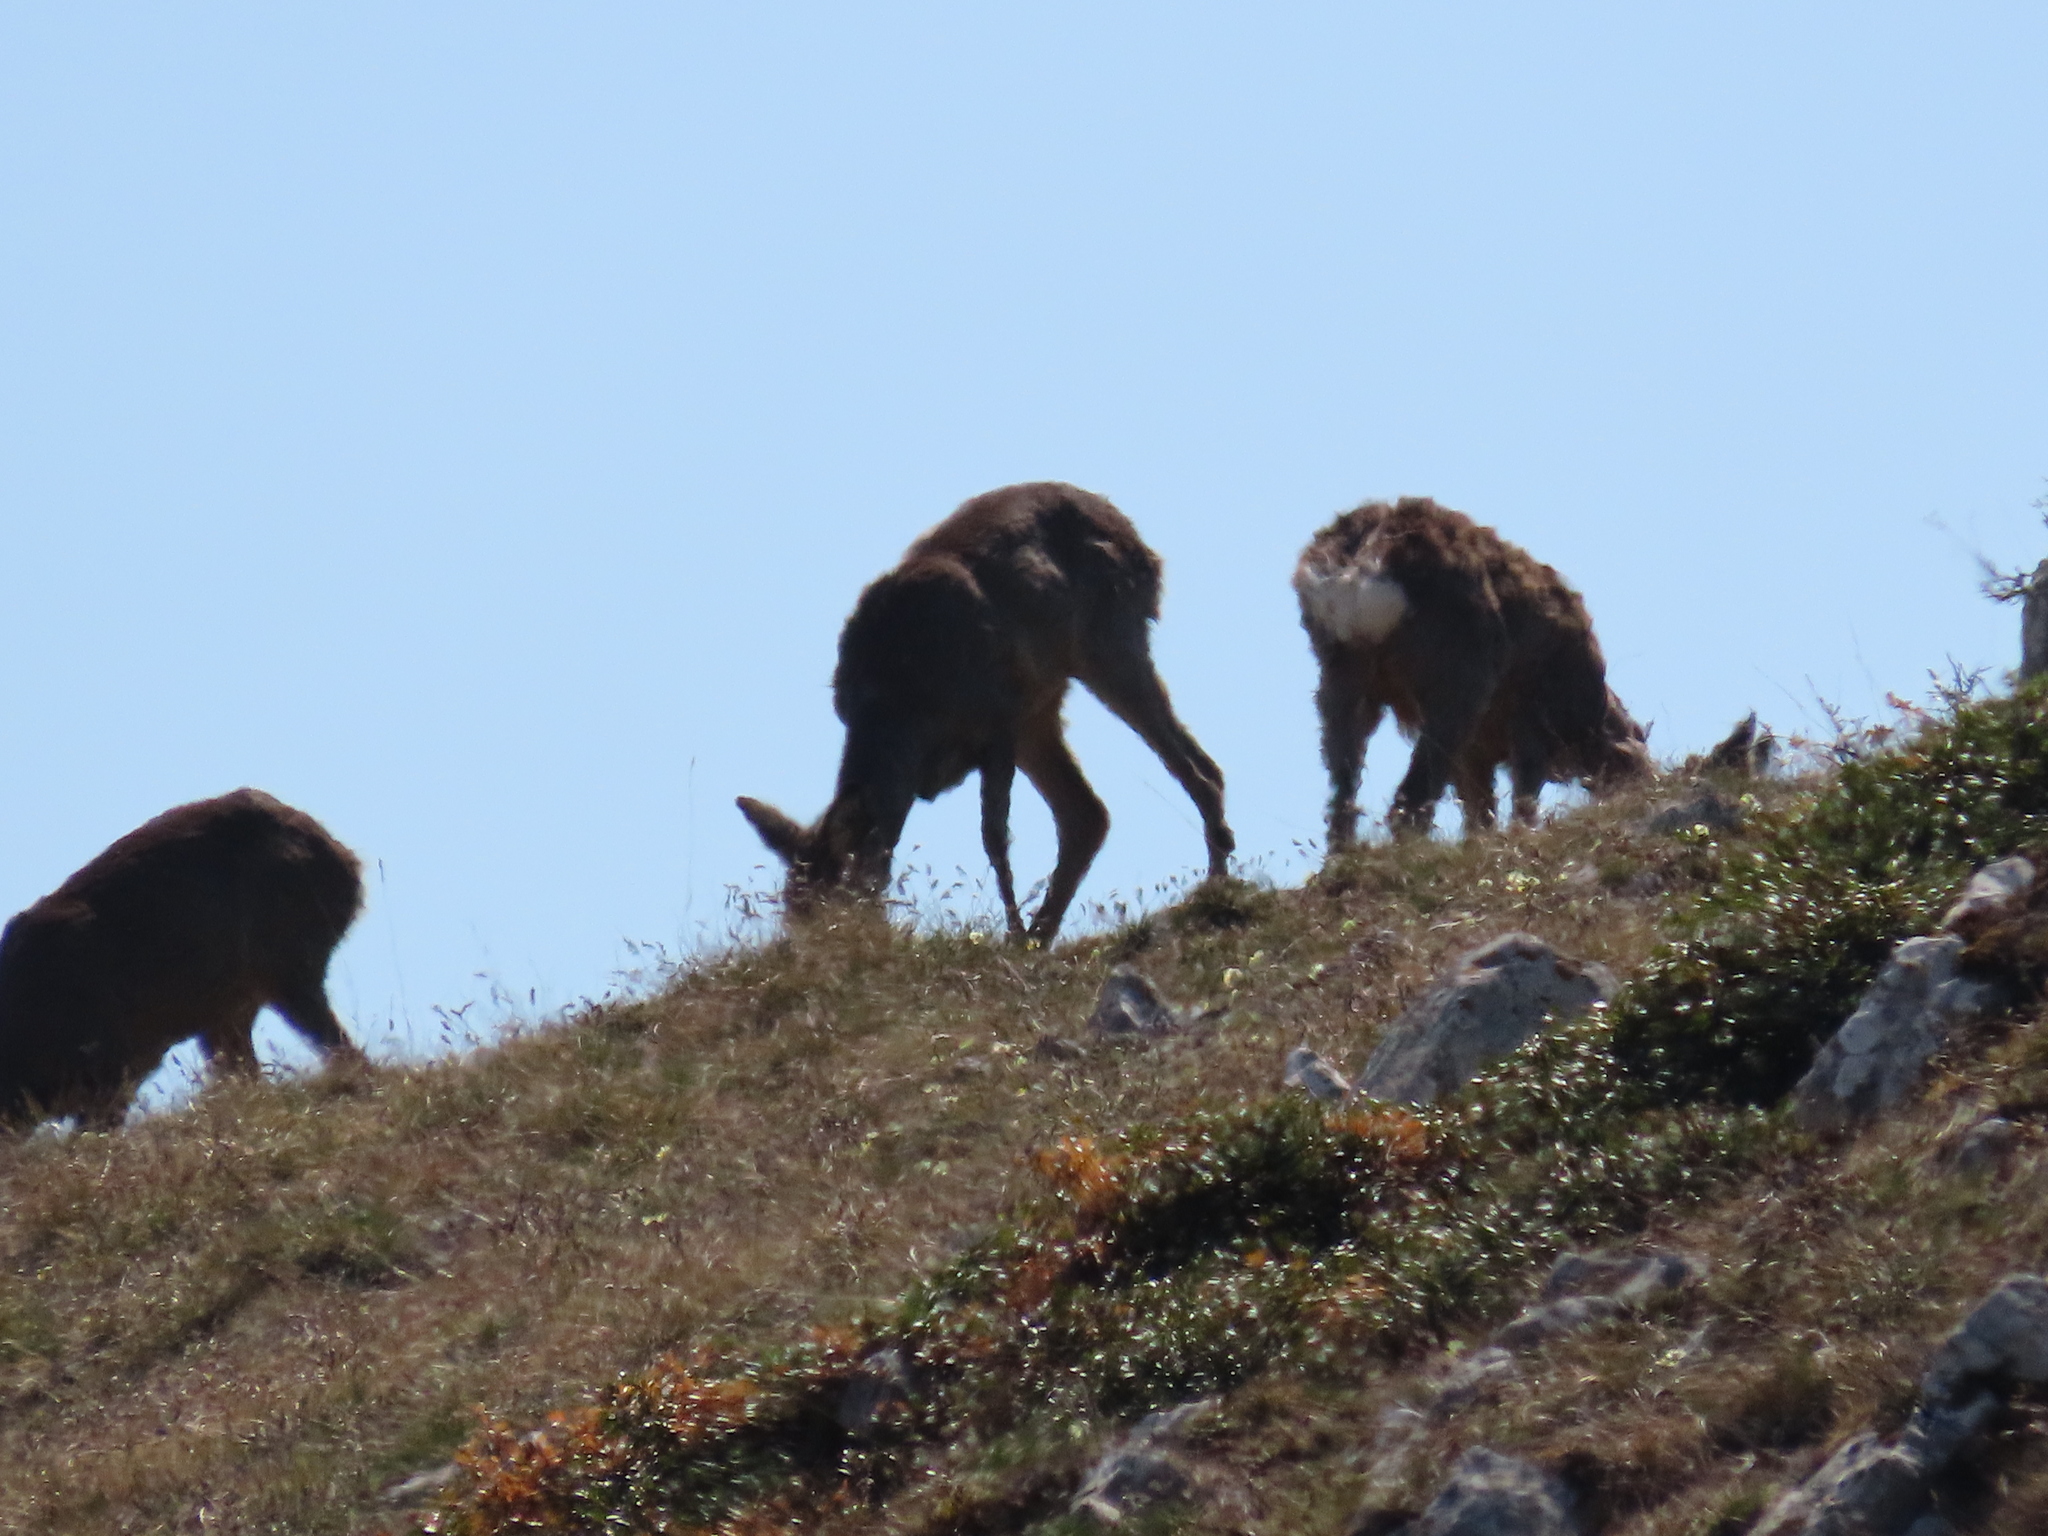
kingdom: Animalia
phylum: Chordata
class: Mammalia
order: Artiodactyla
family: Cervidae
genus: Capreolus
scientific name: Capreolus capreolus
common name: Western roe deer
